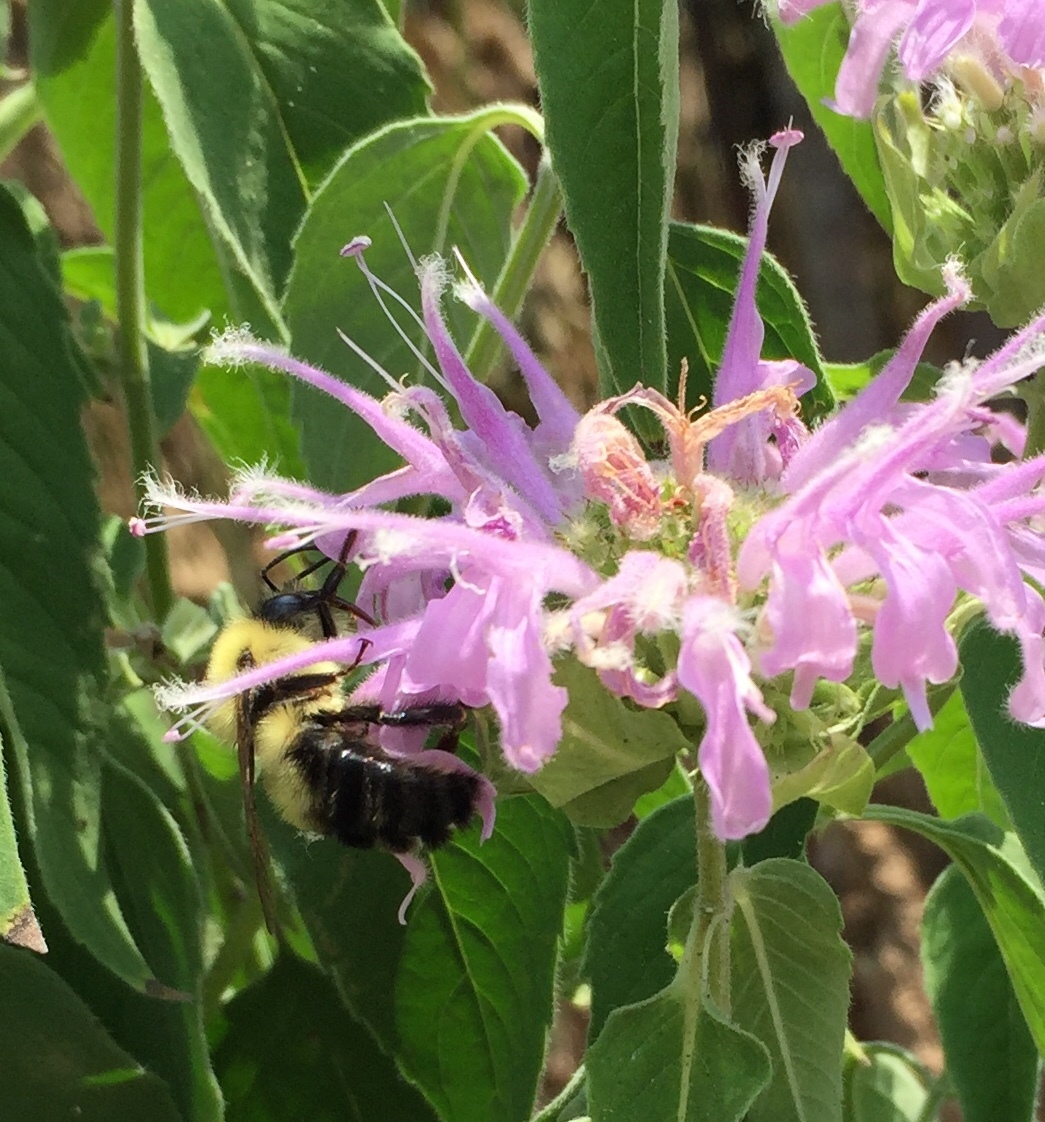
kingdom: Animalia
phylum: Arthropoda
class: Insecta
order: Hymenoptera
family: Apidae
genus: Bombus
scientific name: Bombus bimaculatus
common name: Two-spotted bumble bee
